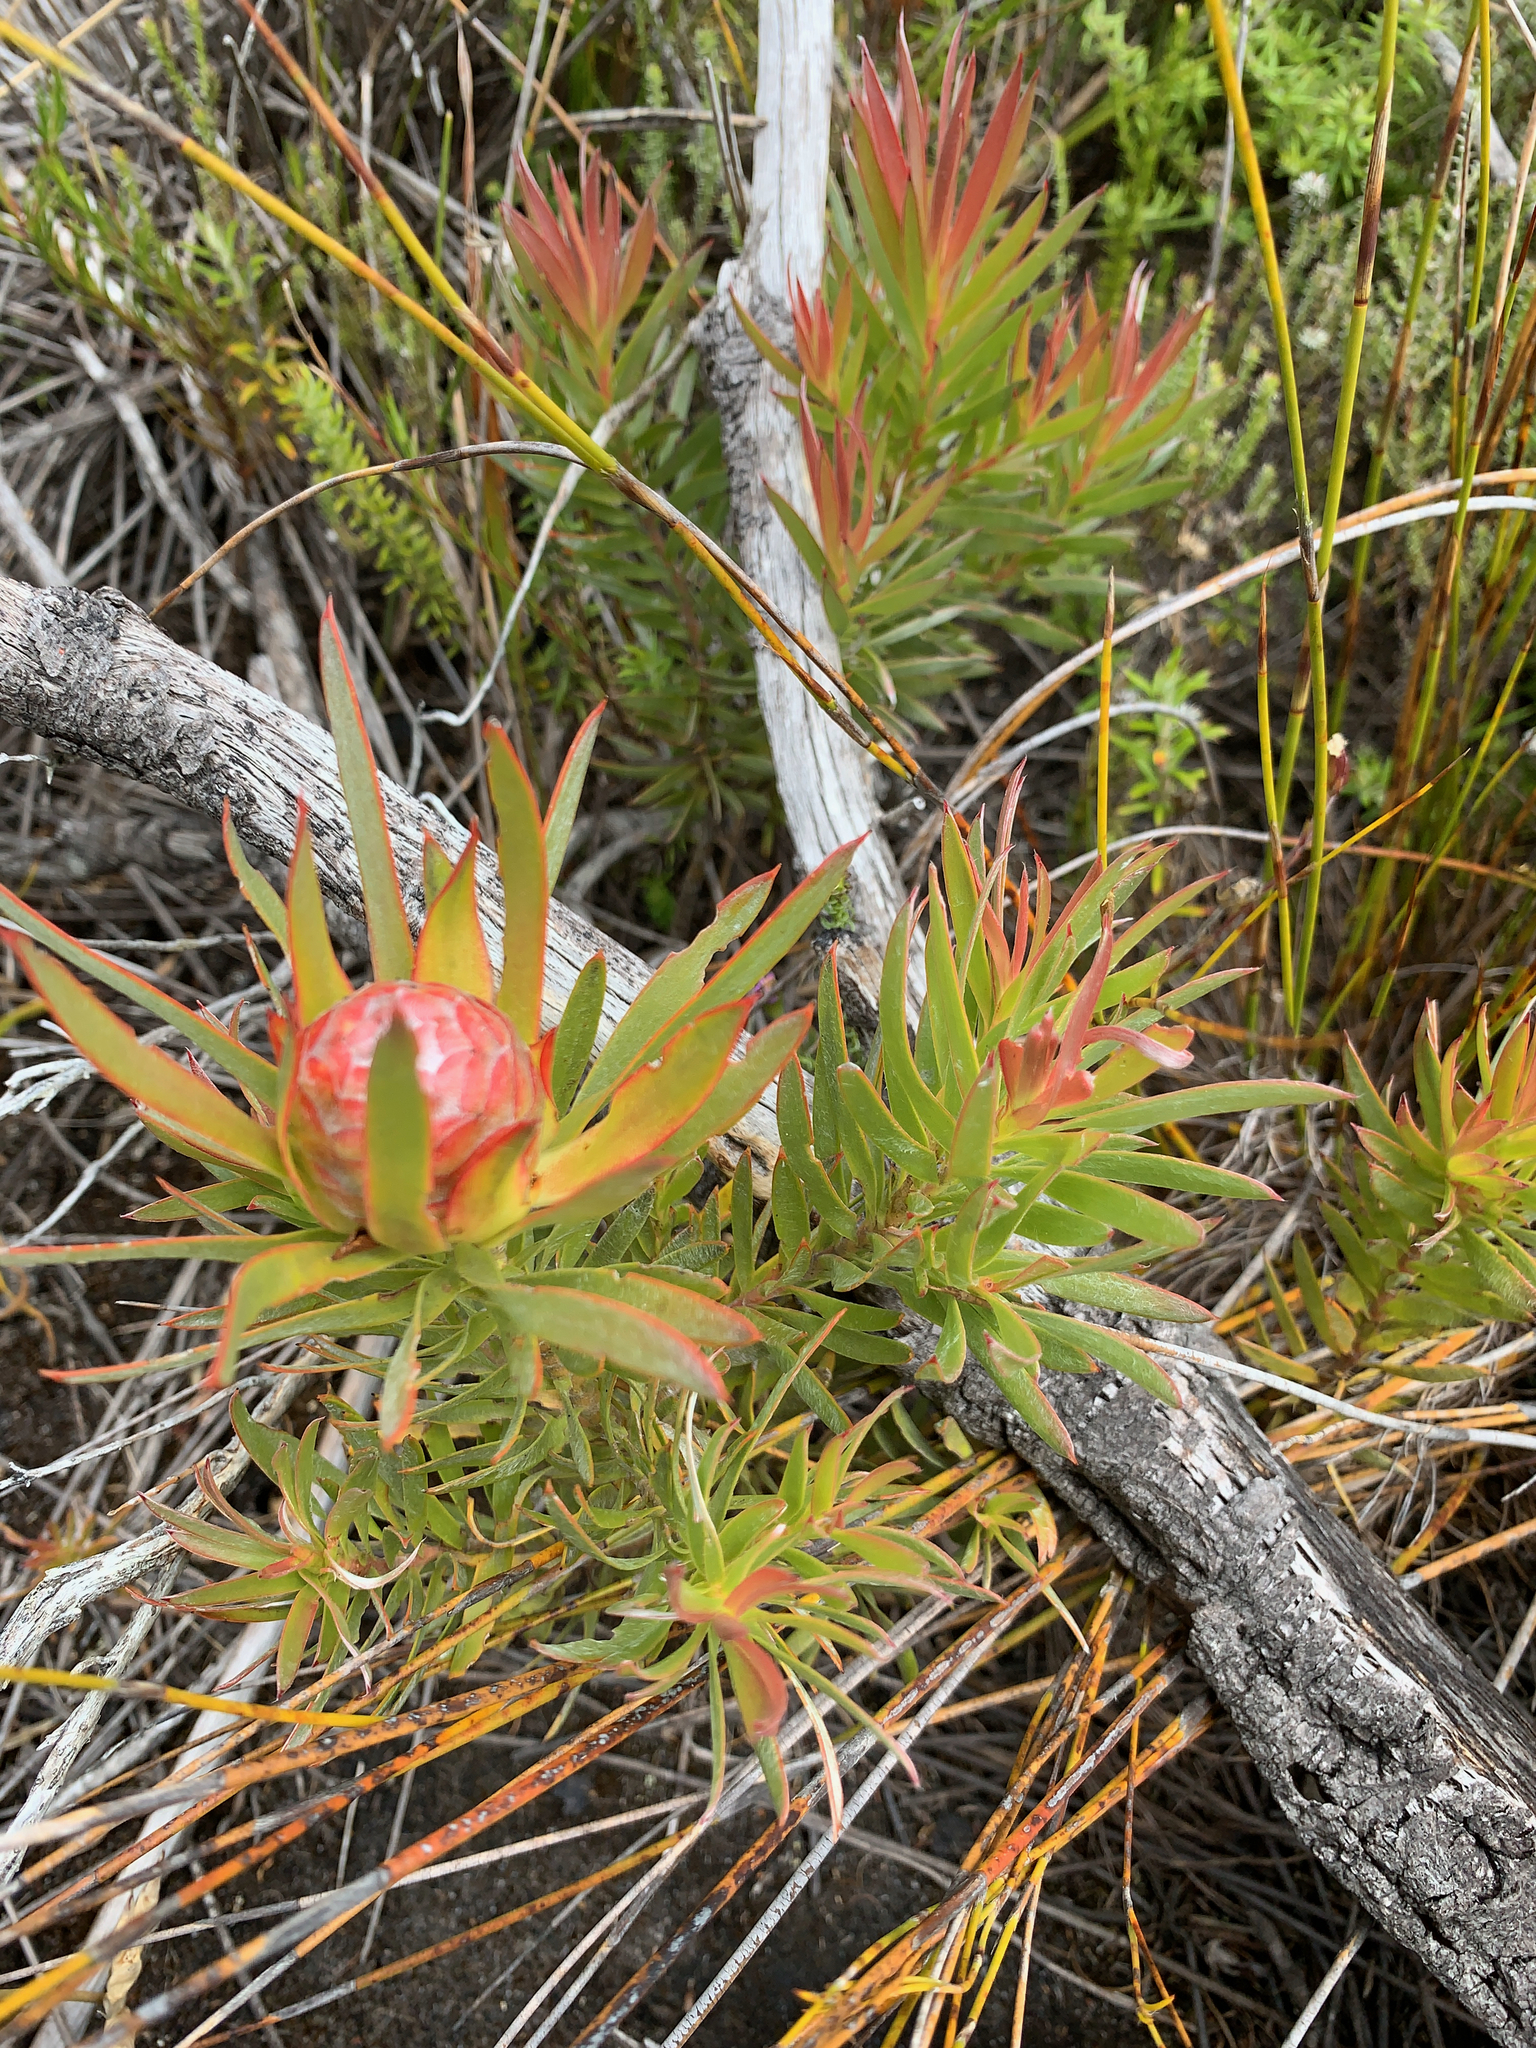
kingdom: Plantae
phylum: Tracheophyta
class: Magnoliopsida
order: Proteales
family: Proteaceae
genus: Leucadendron
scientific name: Leucadendron xanthoconus
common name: Sickle-leaf conebush
